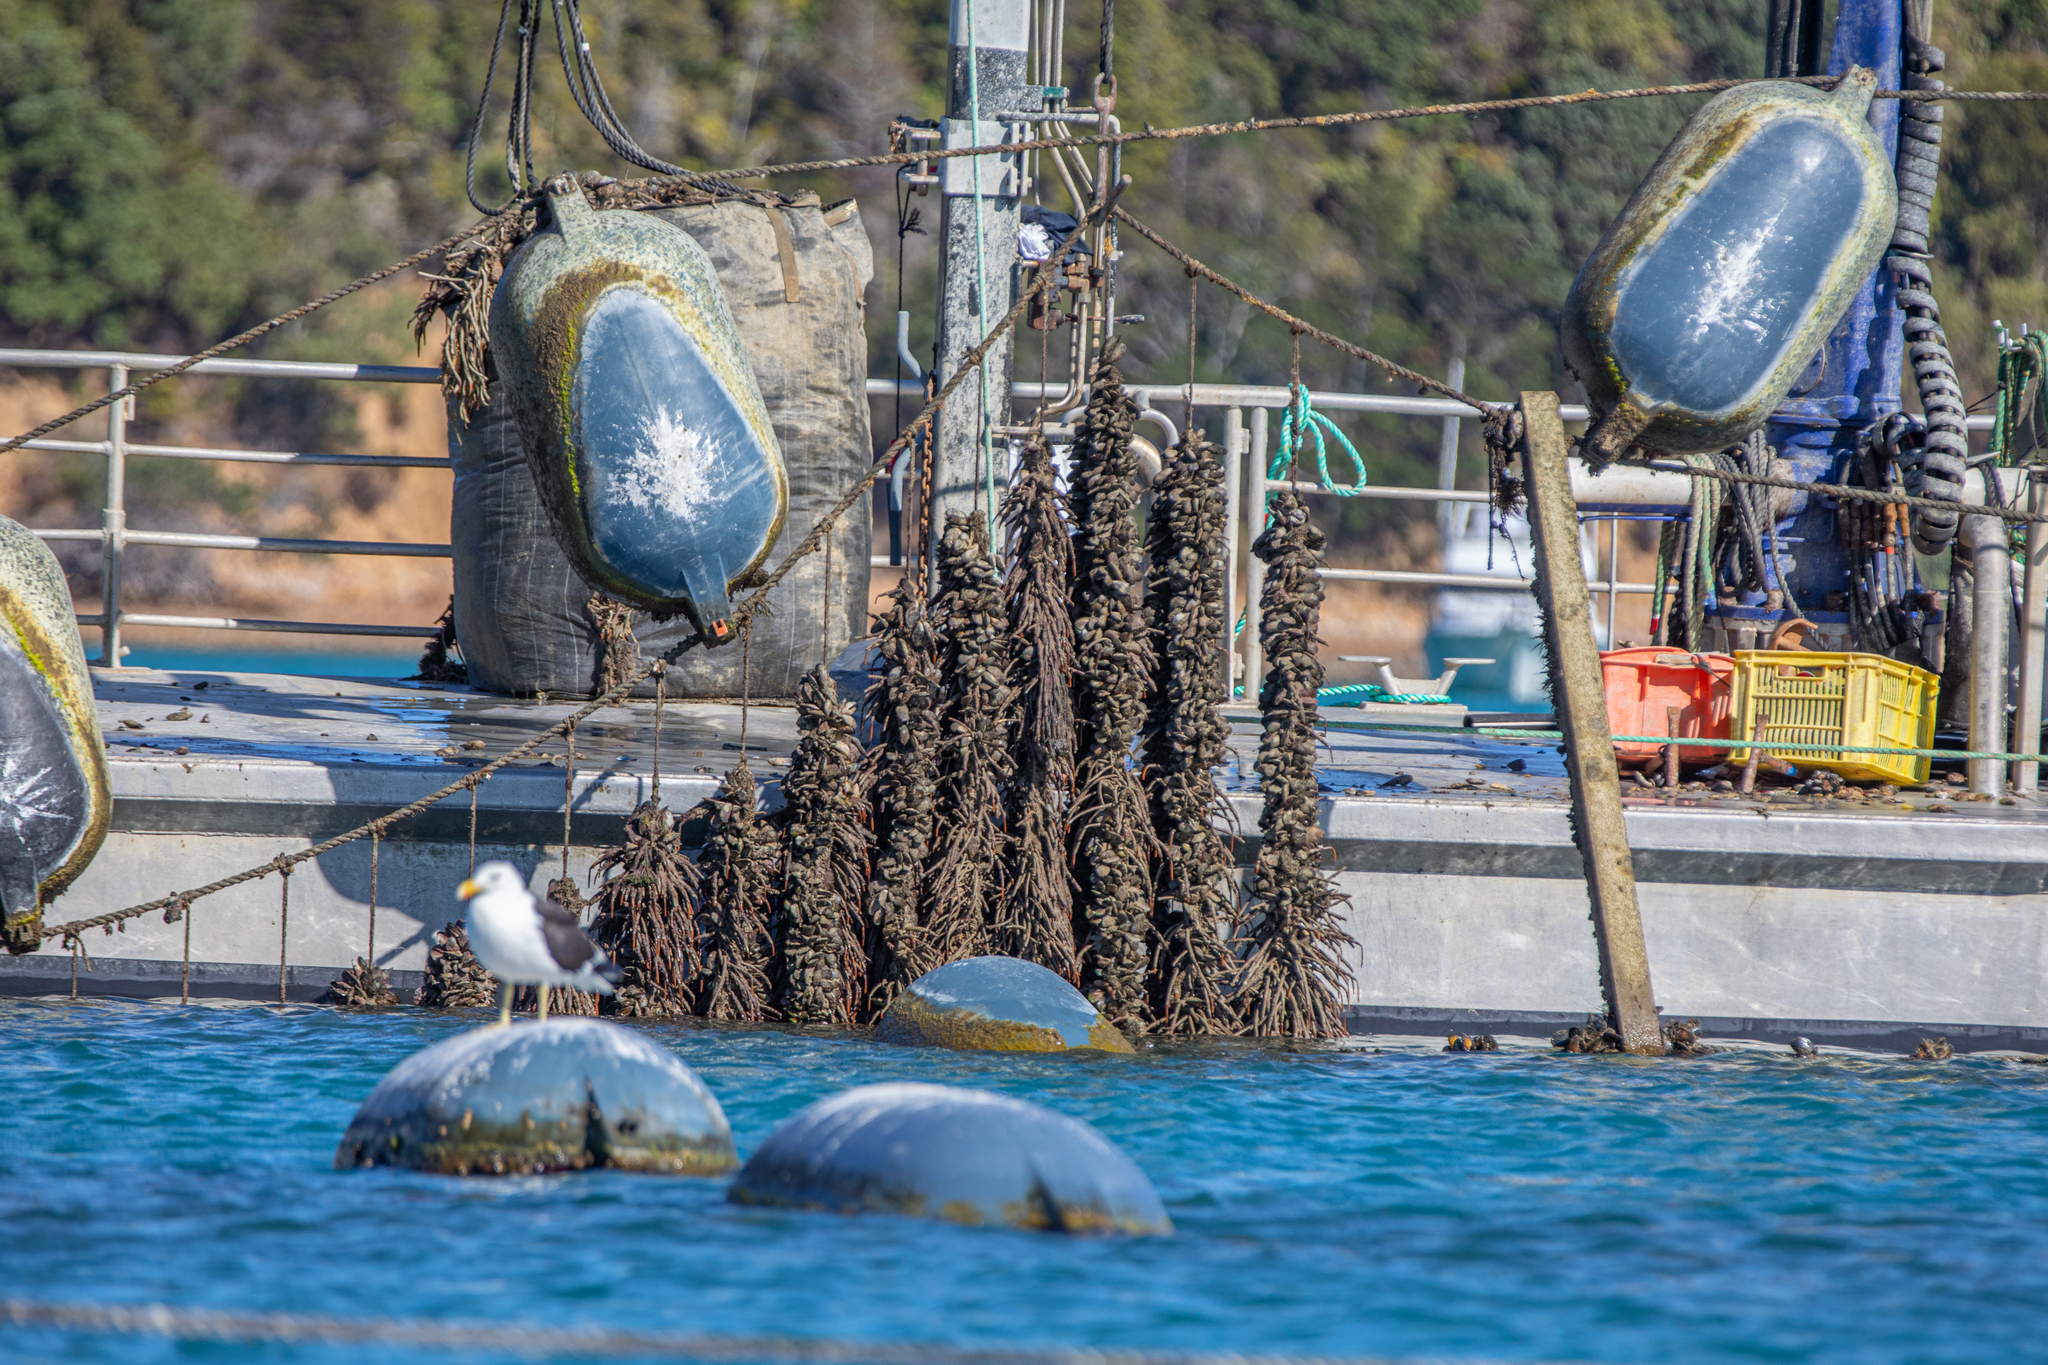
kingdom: Animalia
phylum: Annelida
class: Polychaeta
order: Sabellida
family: Sabellidae
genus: Sabella
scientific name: Sabella spallanzanii
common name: Feather duster worm
